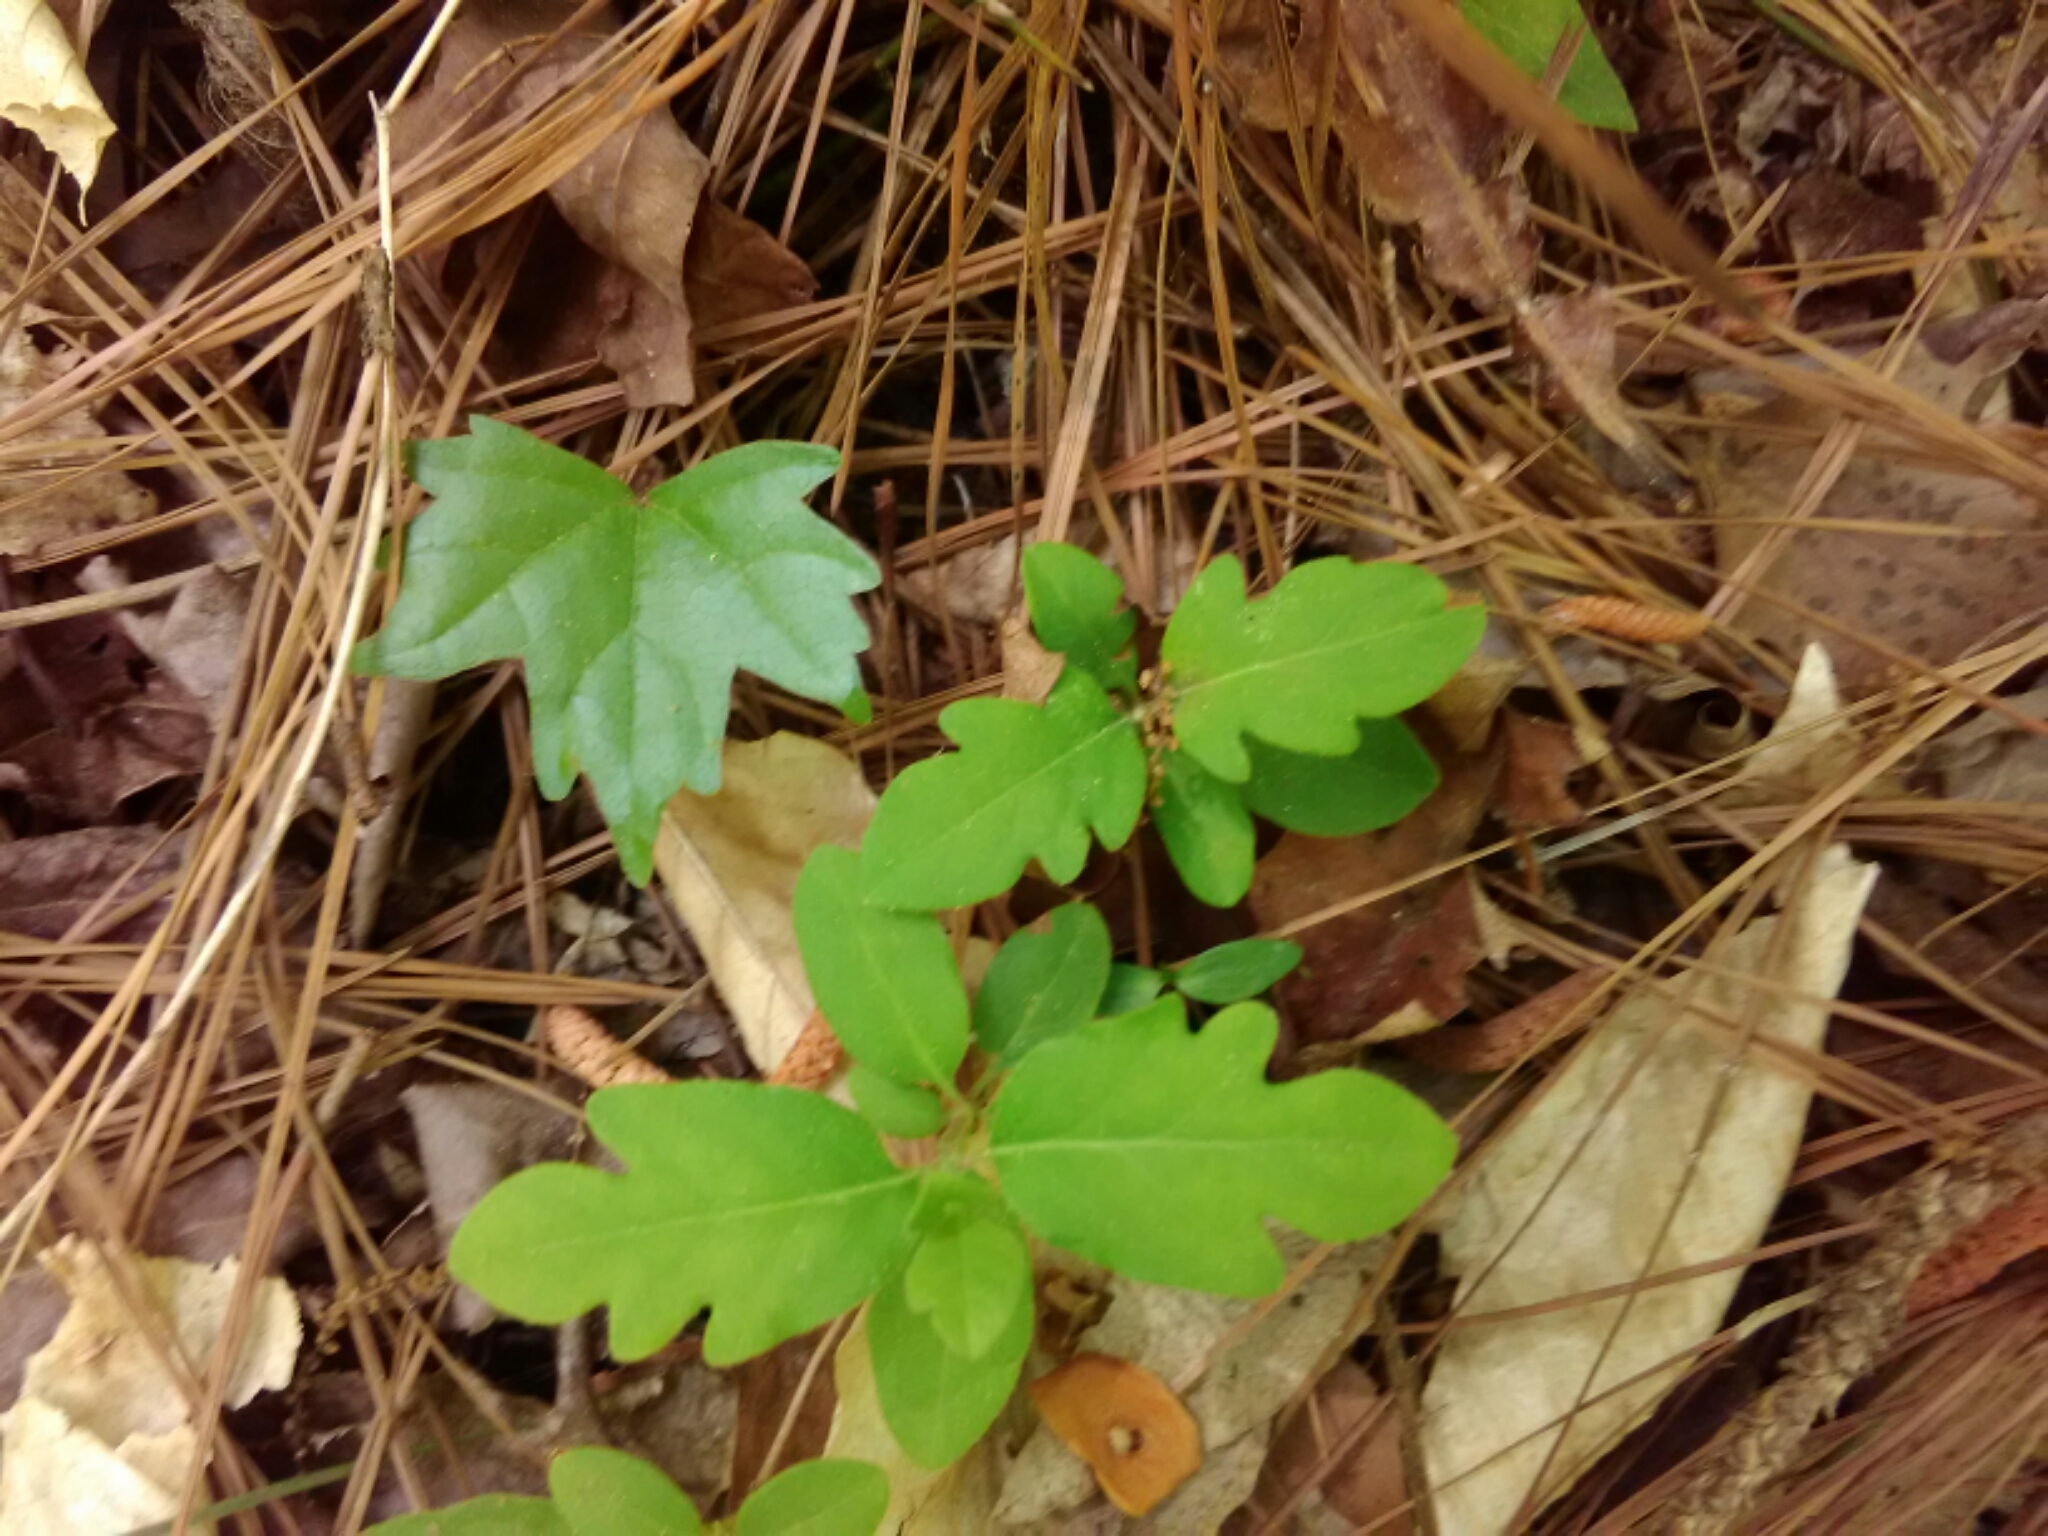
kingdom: Plantae
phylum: Tracheophyta
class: Magnoliopsida
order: Dipsacales
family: Caprifoliaceae
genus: Lonicera
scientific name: Lonicera japonica
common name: Japanese honeysuckle
